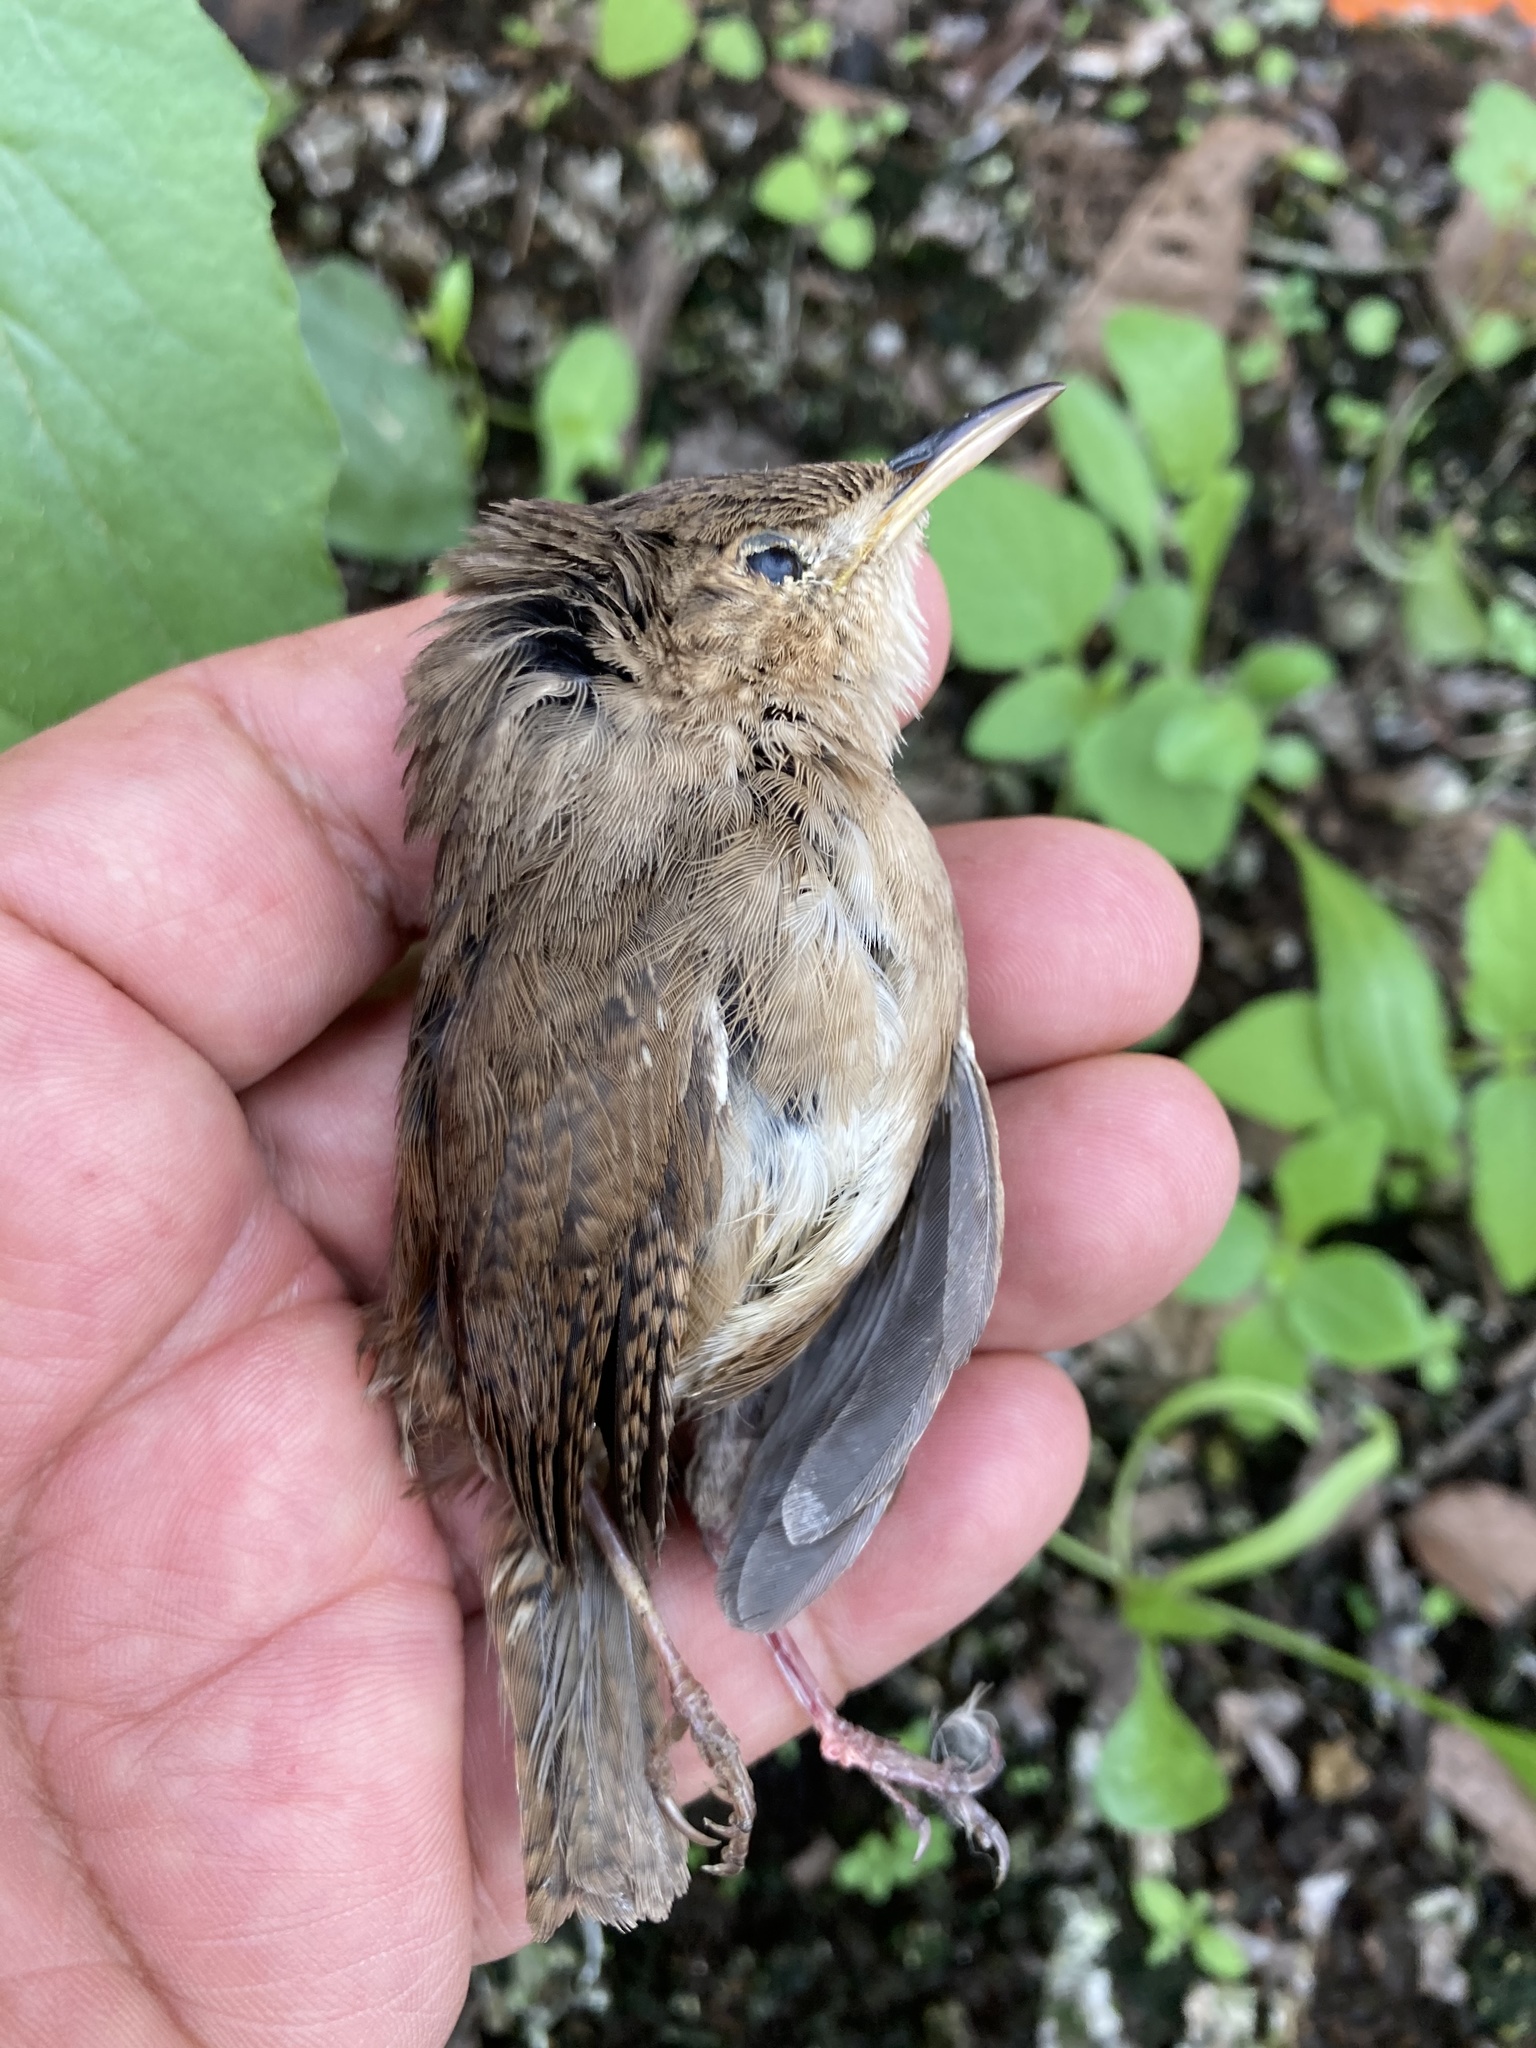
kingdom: Animalia
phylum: Chordata
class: Aves
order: Passeriformes
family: Troglodytidae
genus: Troglodytes
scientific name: Troglodytes aedon
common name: House wren
